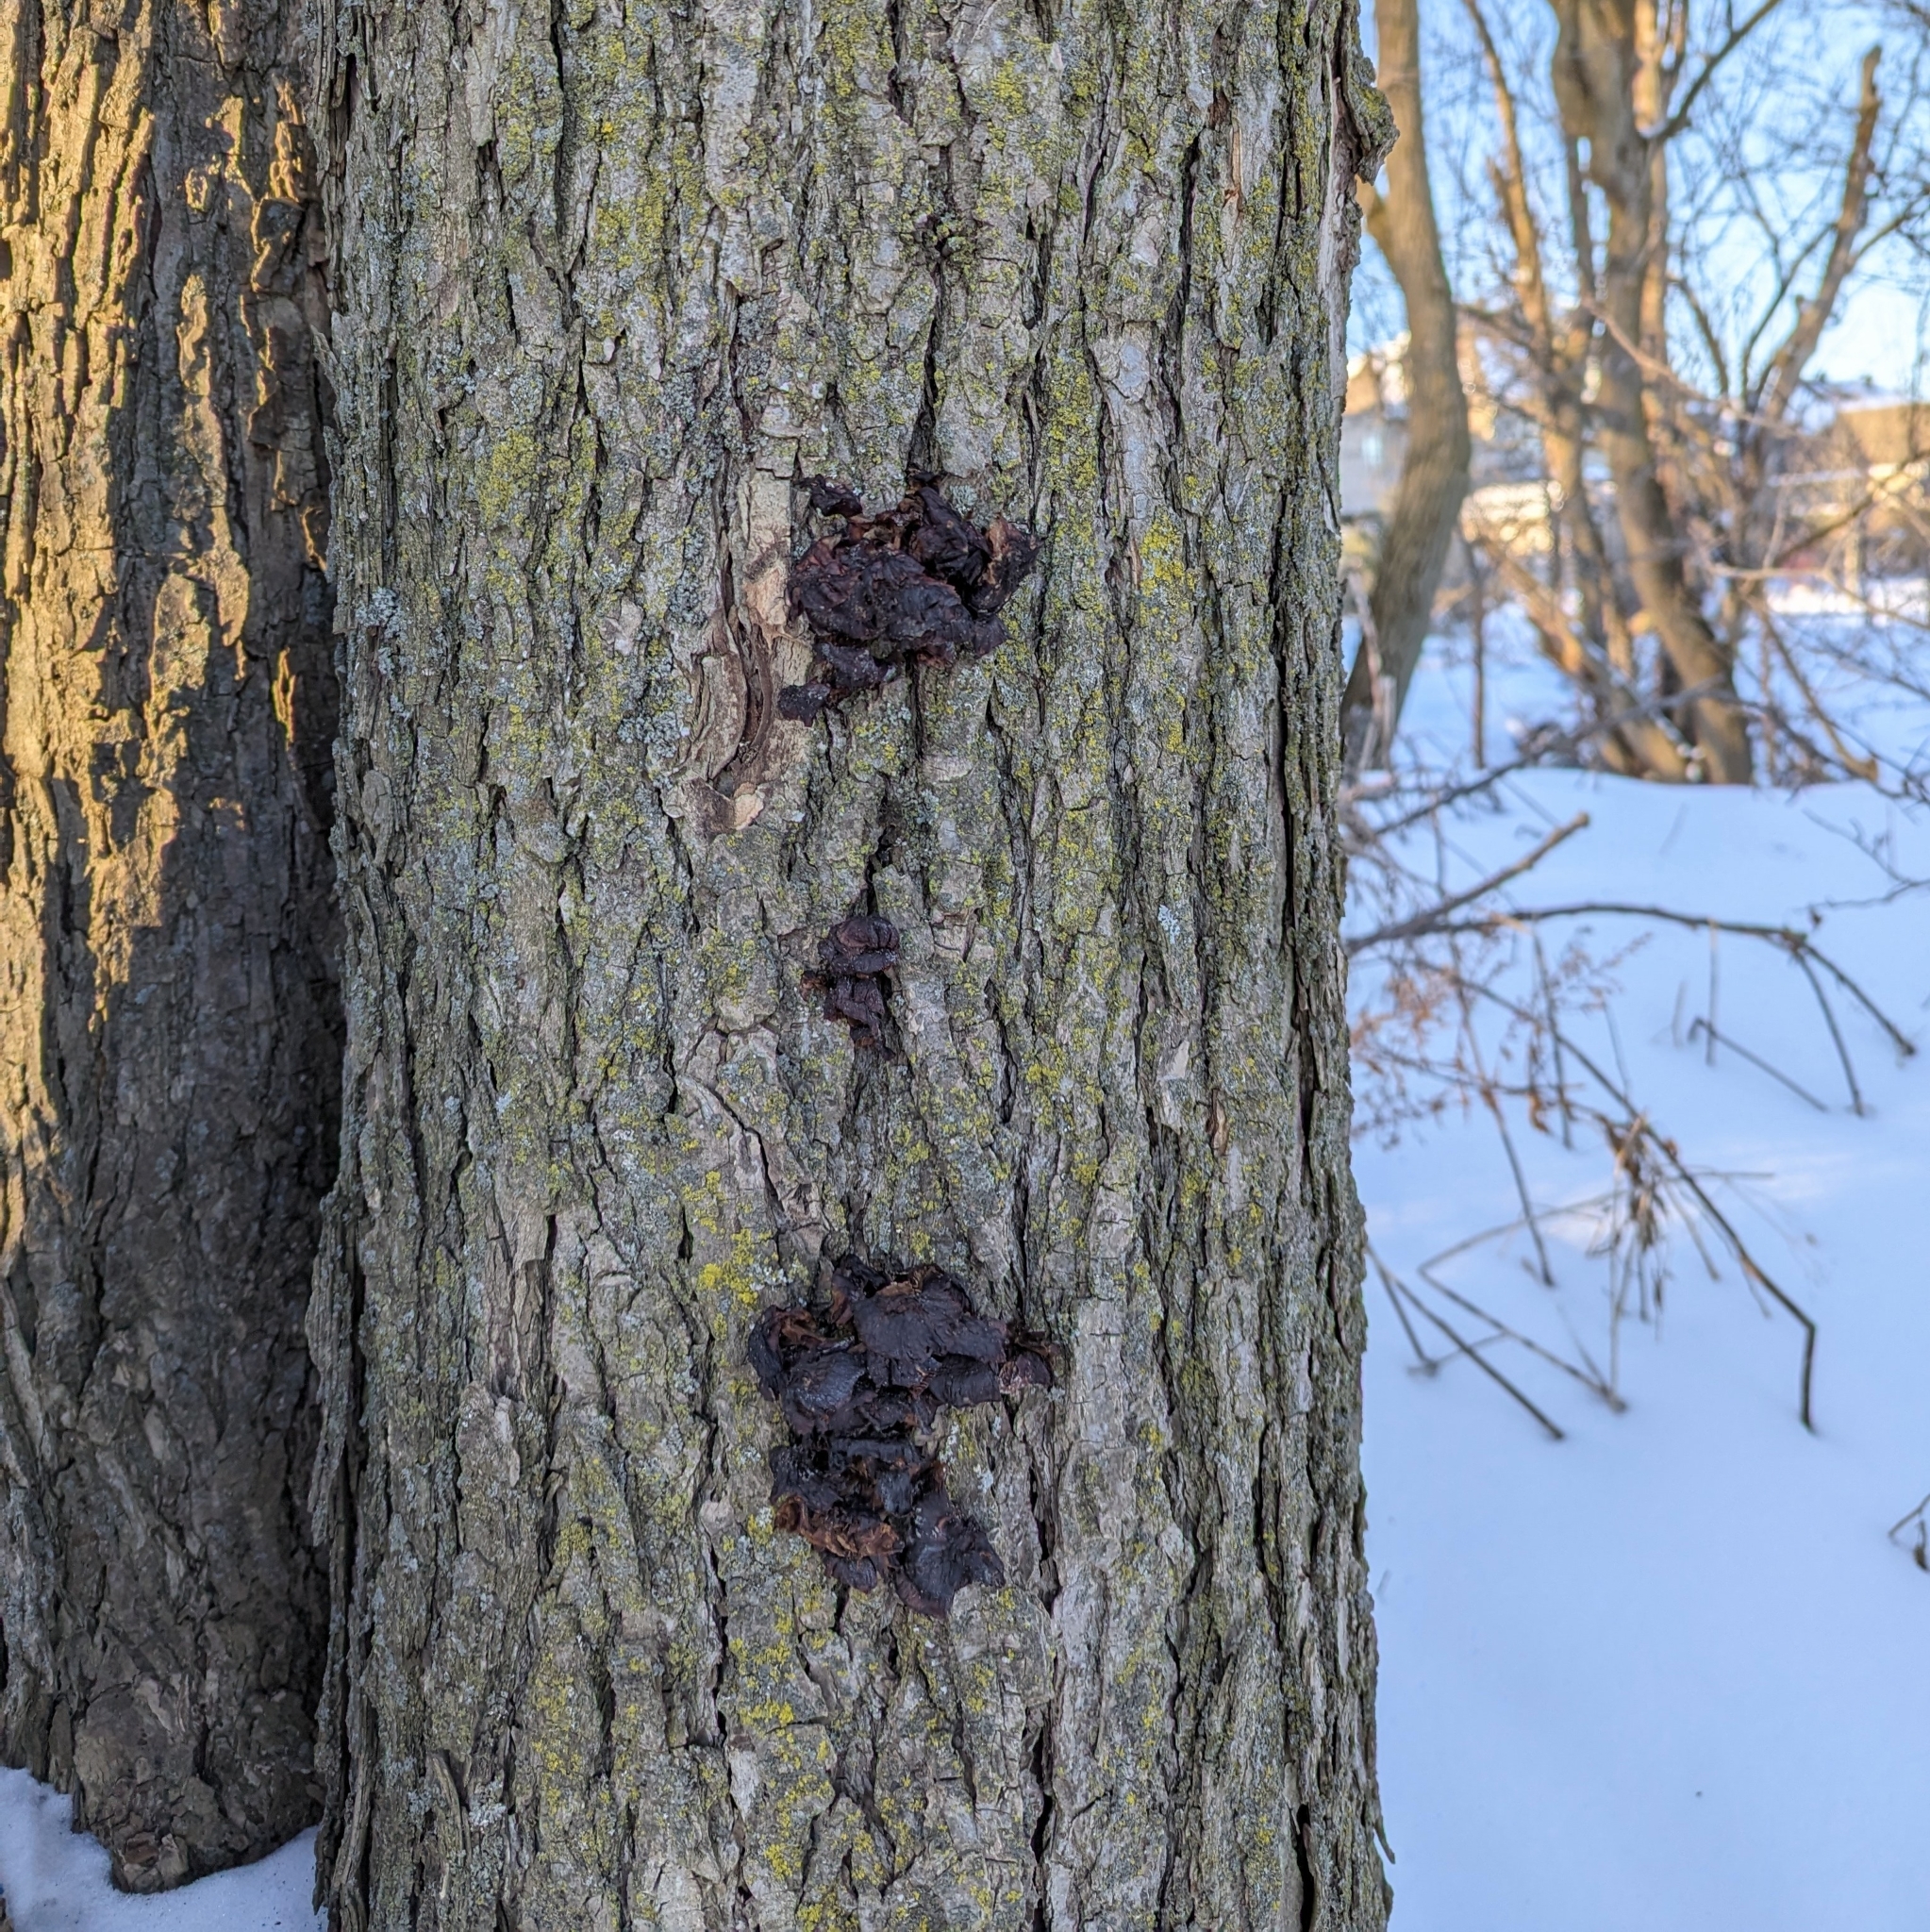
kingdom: Plantae
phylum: Tracheophyta
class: Magnoliopsida
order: Rosales
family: Ulmaceae
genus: Ulmus
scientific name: Ulmus
